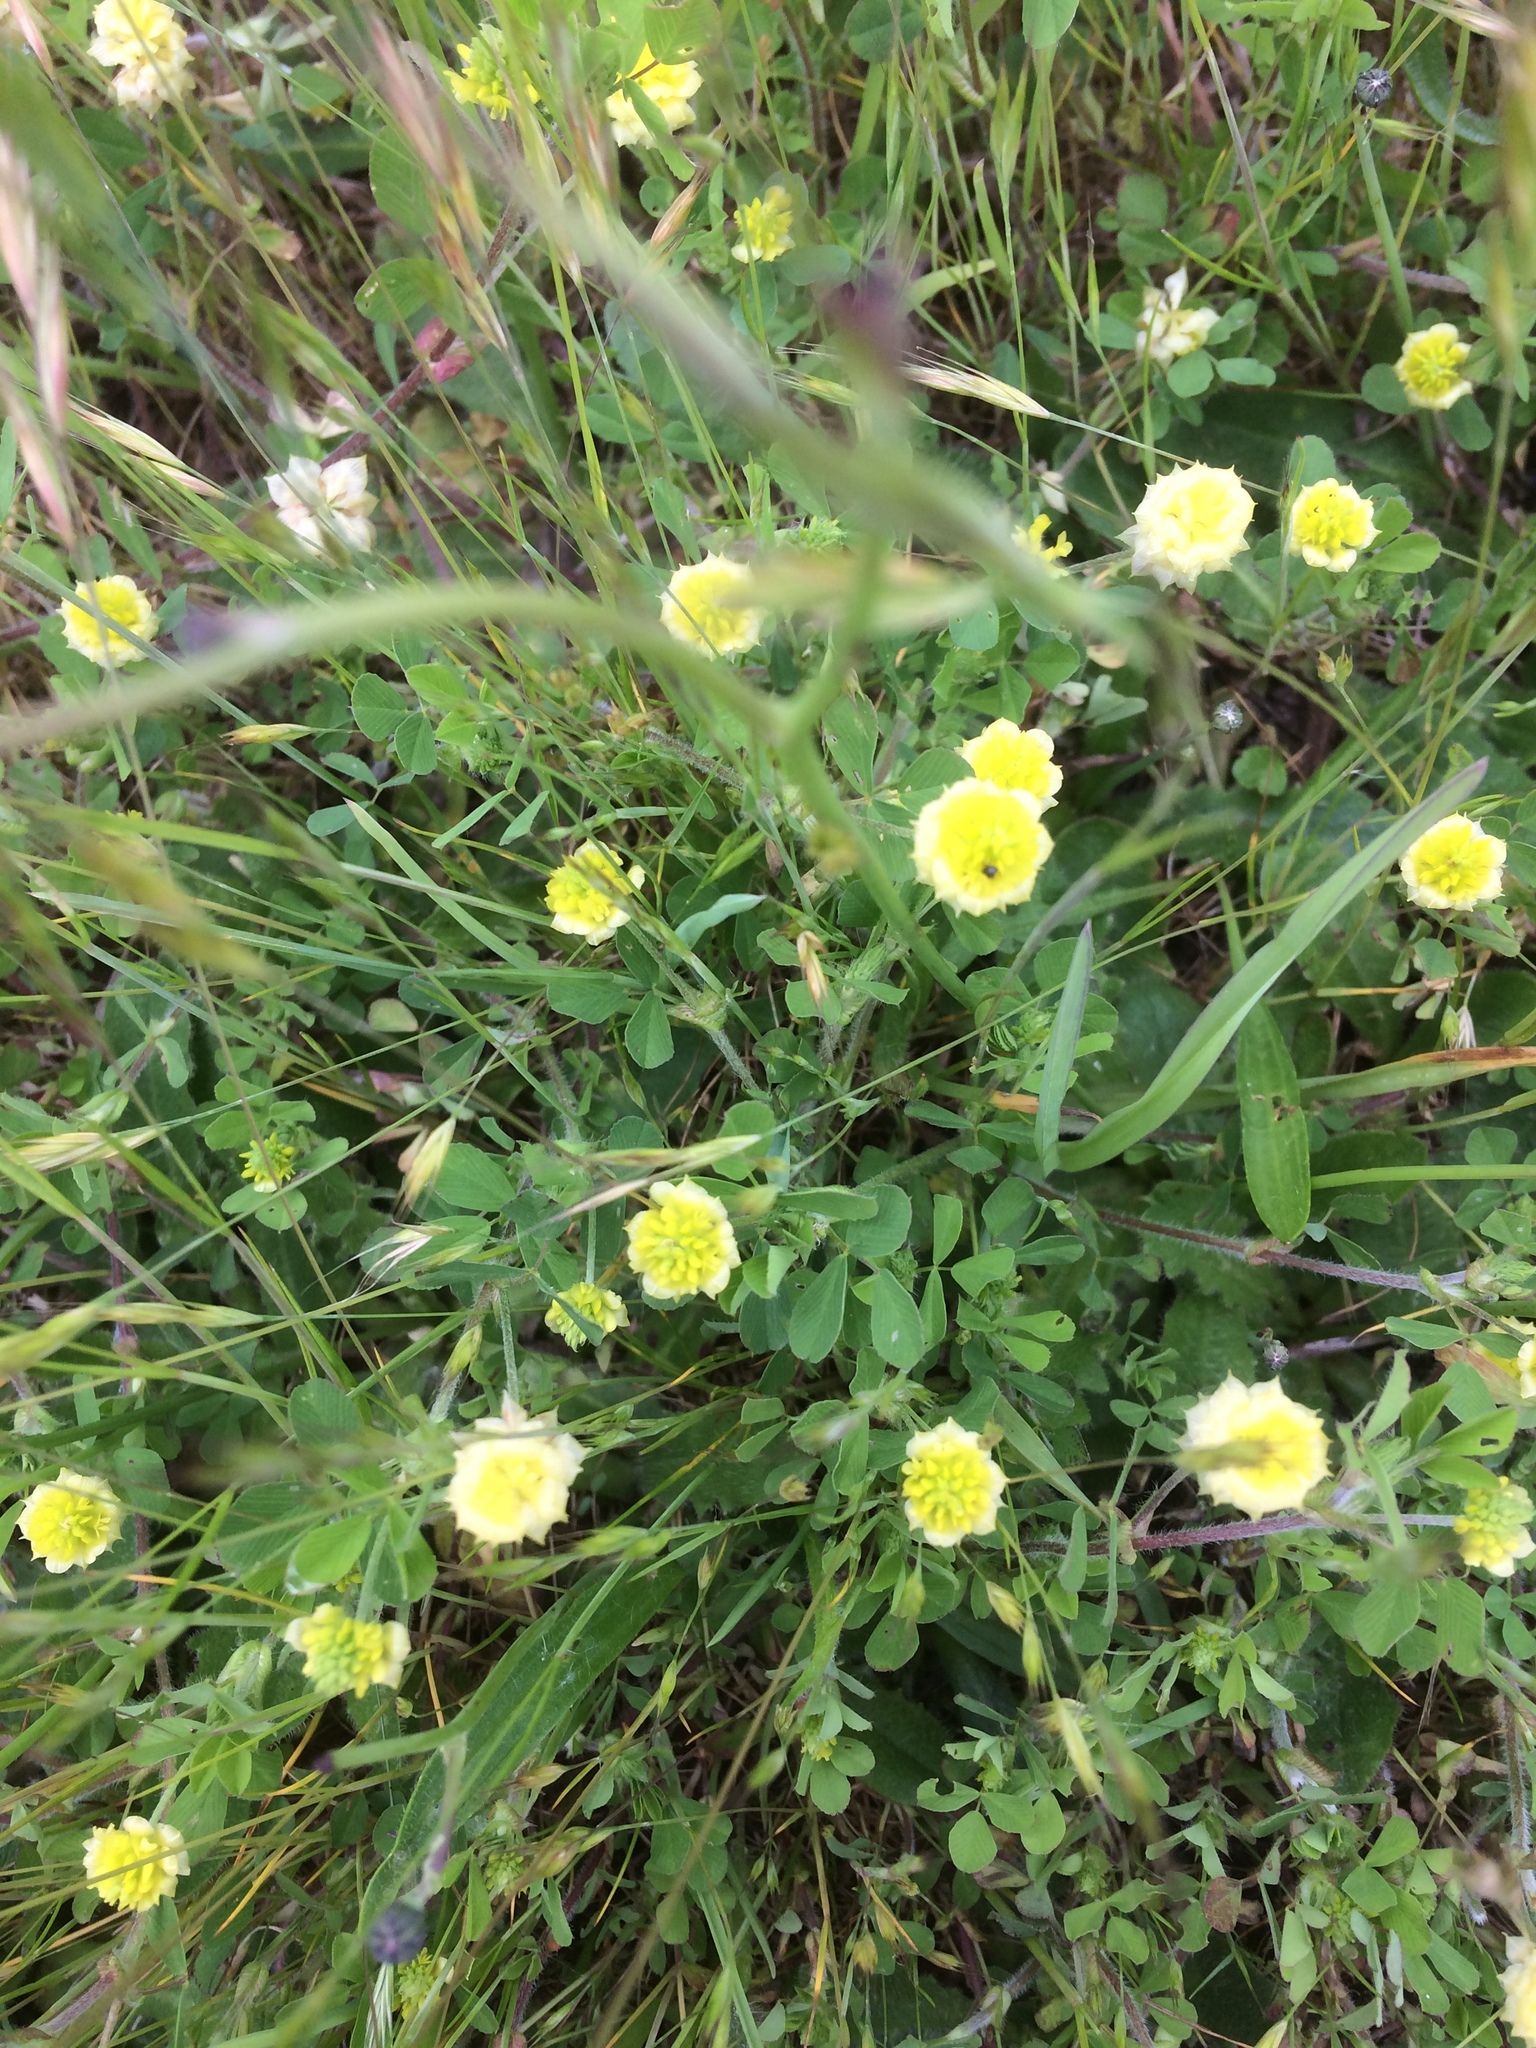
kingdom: Plantae
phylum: Tracheophyta
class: Magnoliopsida
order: Fabales
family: Fabaceae
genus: Trifolium
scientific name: Trifolium campestre
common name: Field clover
